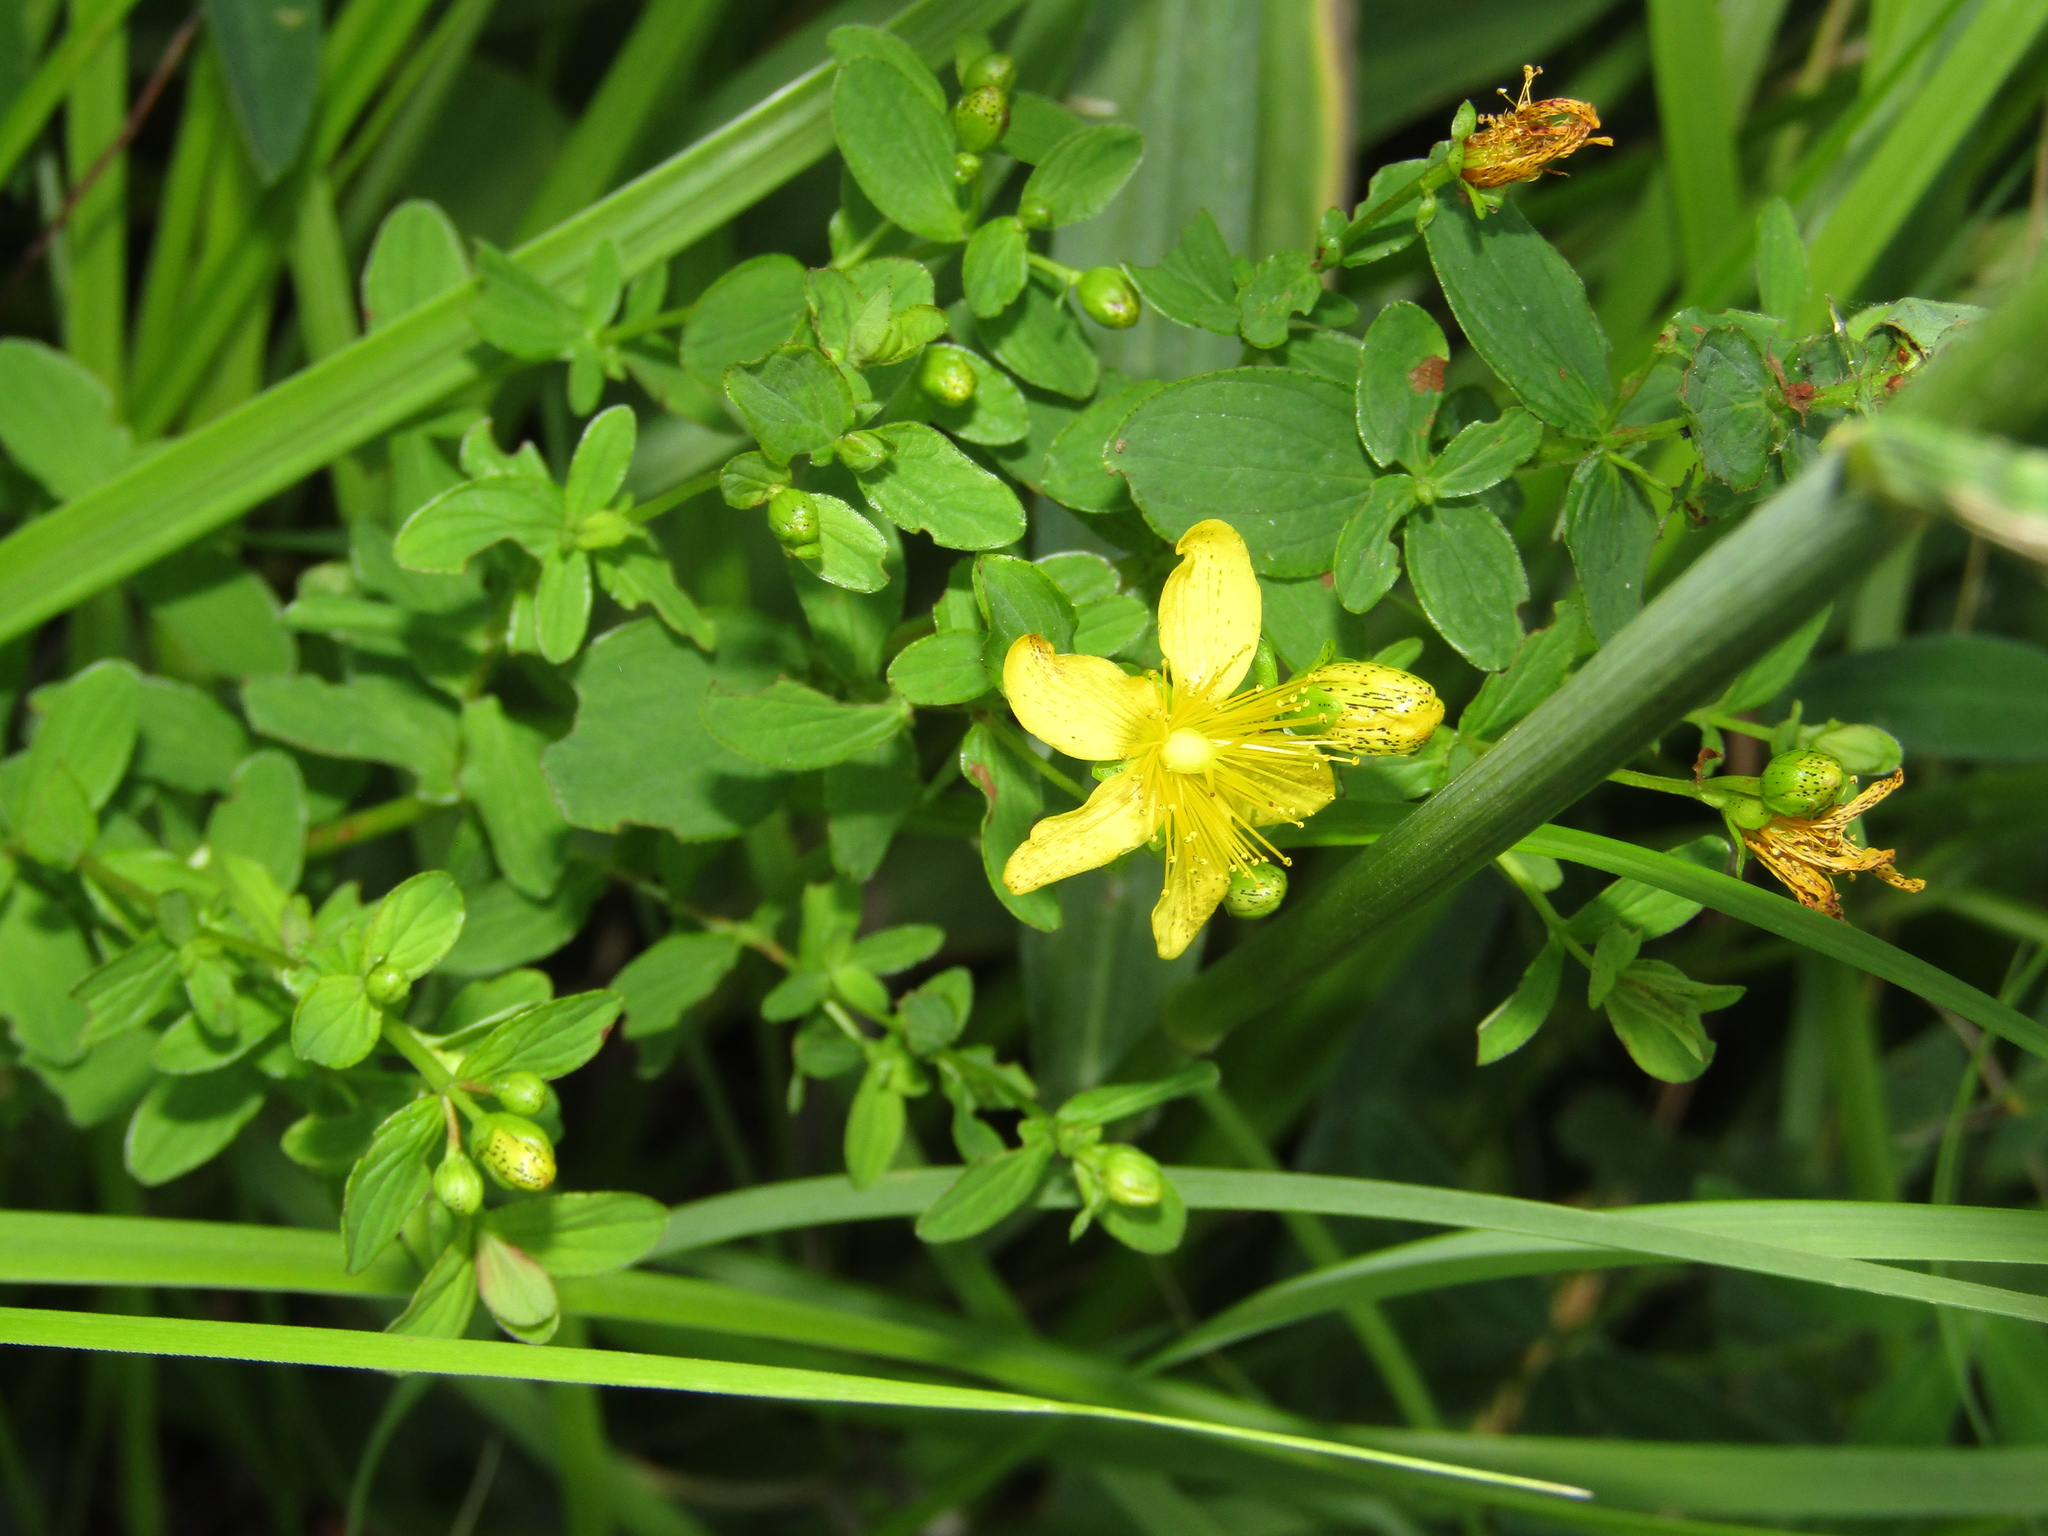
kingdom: Plantae
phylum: Tracheophyta
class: Magnoliopsida
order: Malpighiales
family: Hypericaceae
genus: Hypericum
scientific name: Hypericum maculatum
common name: Imperforate st. john's-wort
